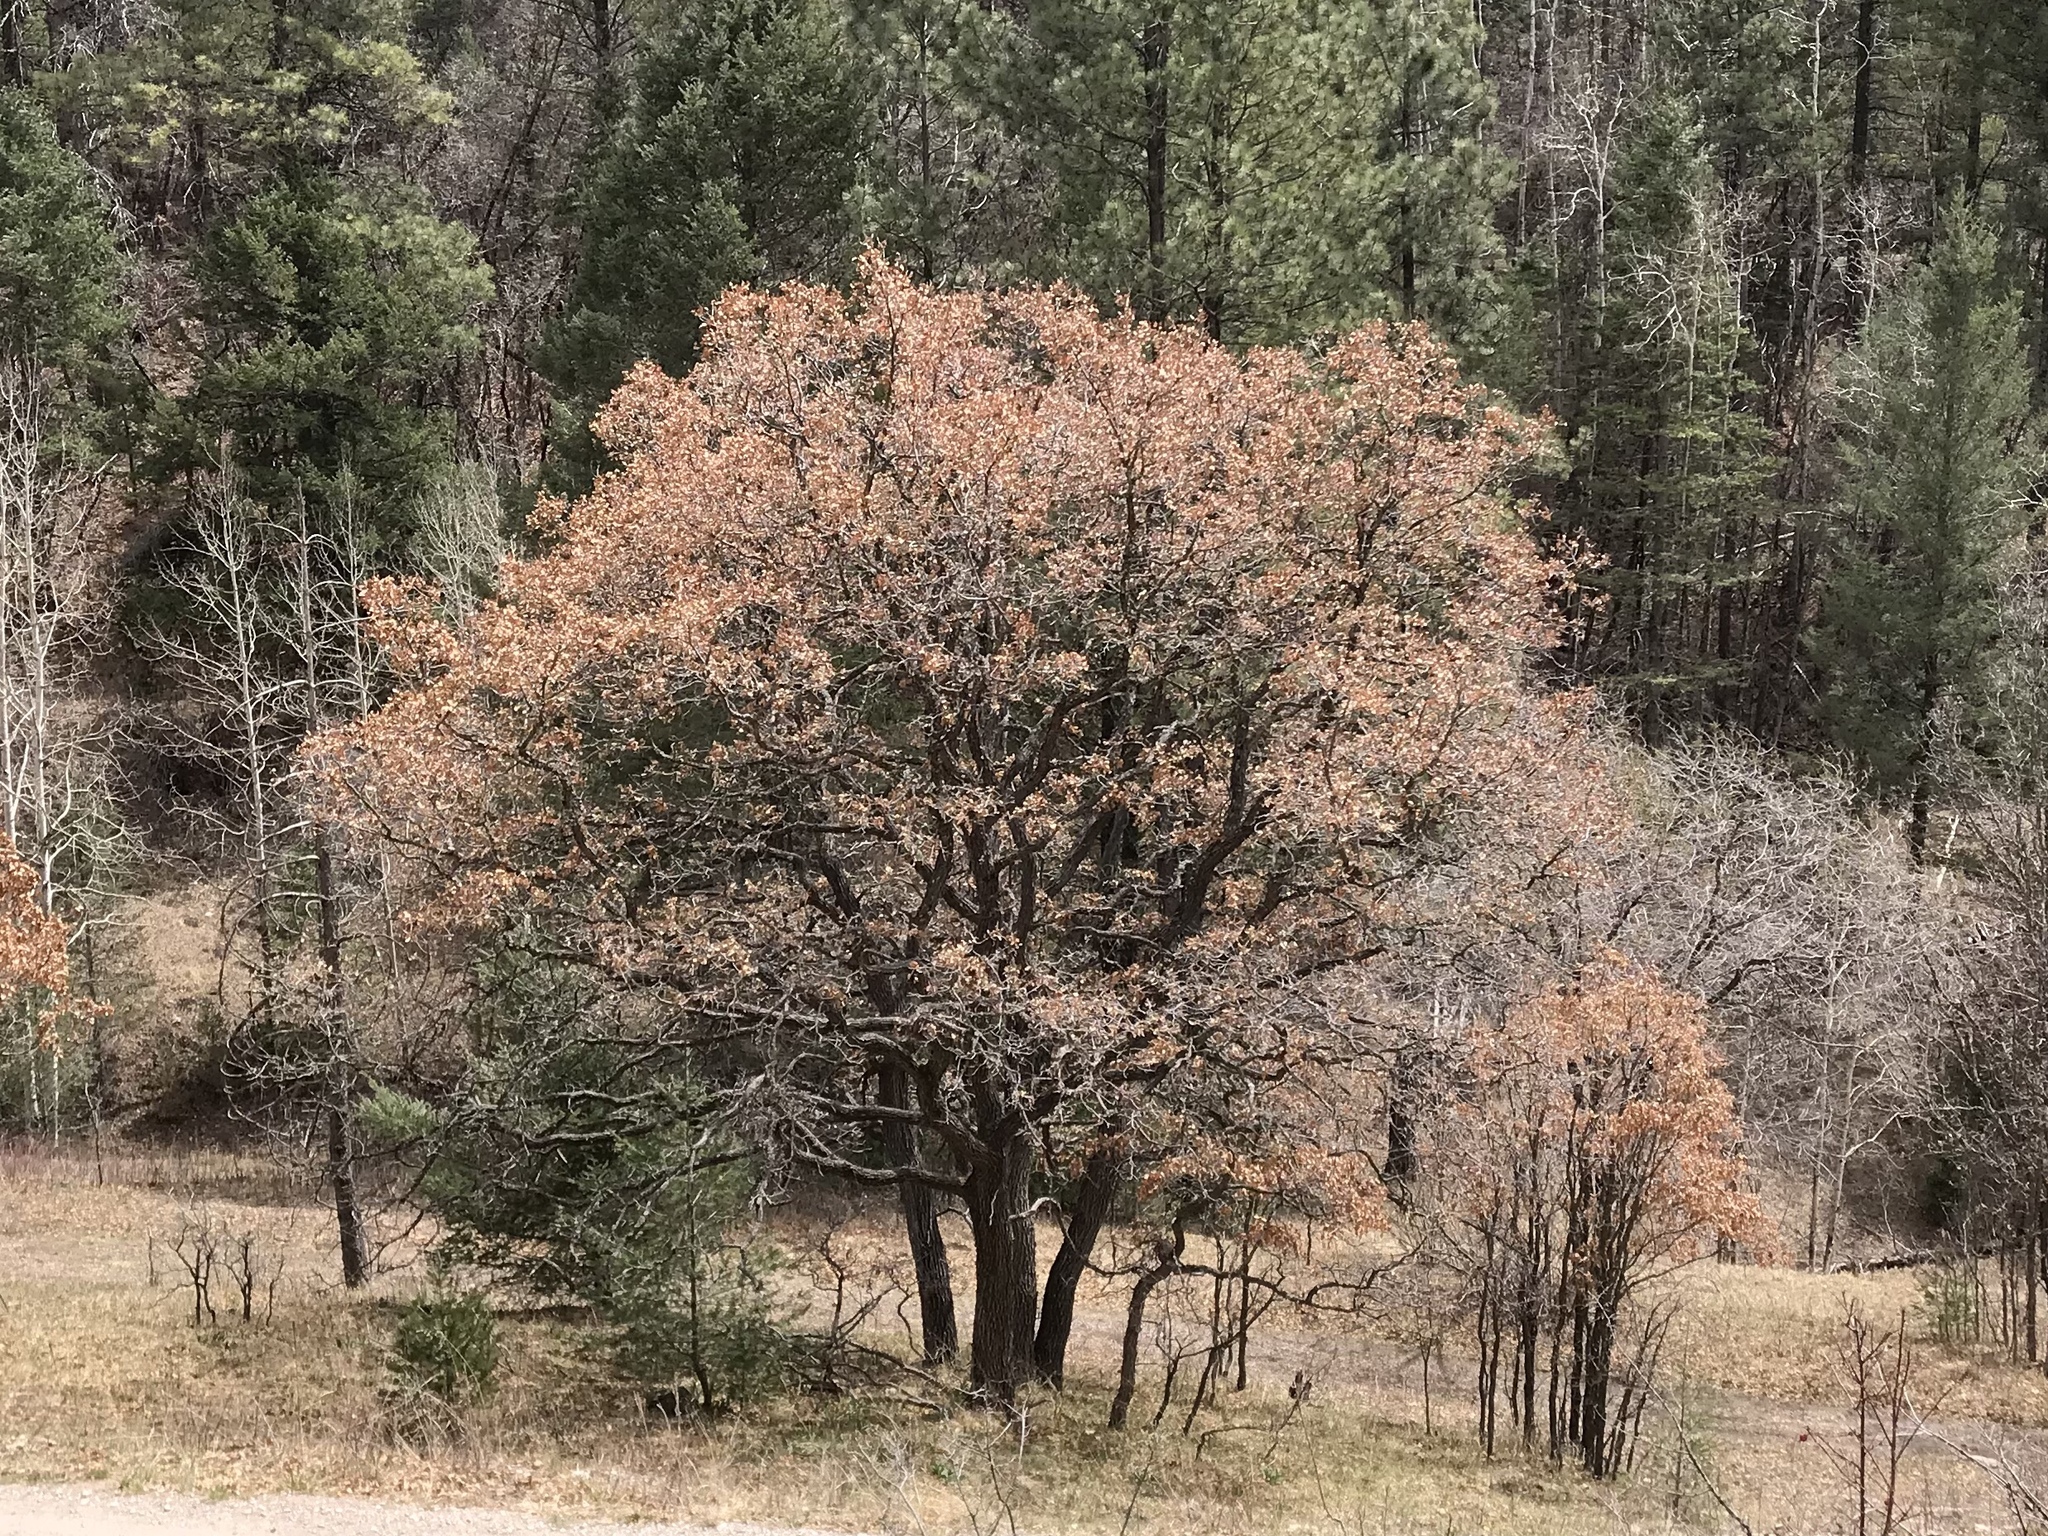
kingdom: Plantae
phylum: Tracheophyta
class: Magnoliopsida
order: Fagales
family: Fagaceae
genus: Quercus
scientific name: Quercus gambelii
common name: Gambel oak
